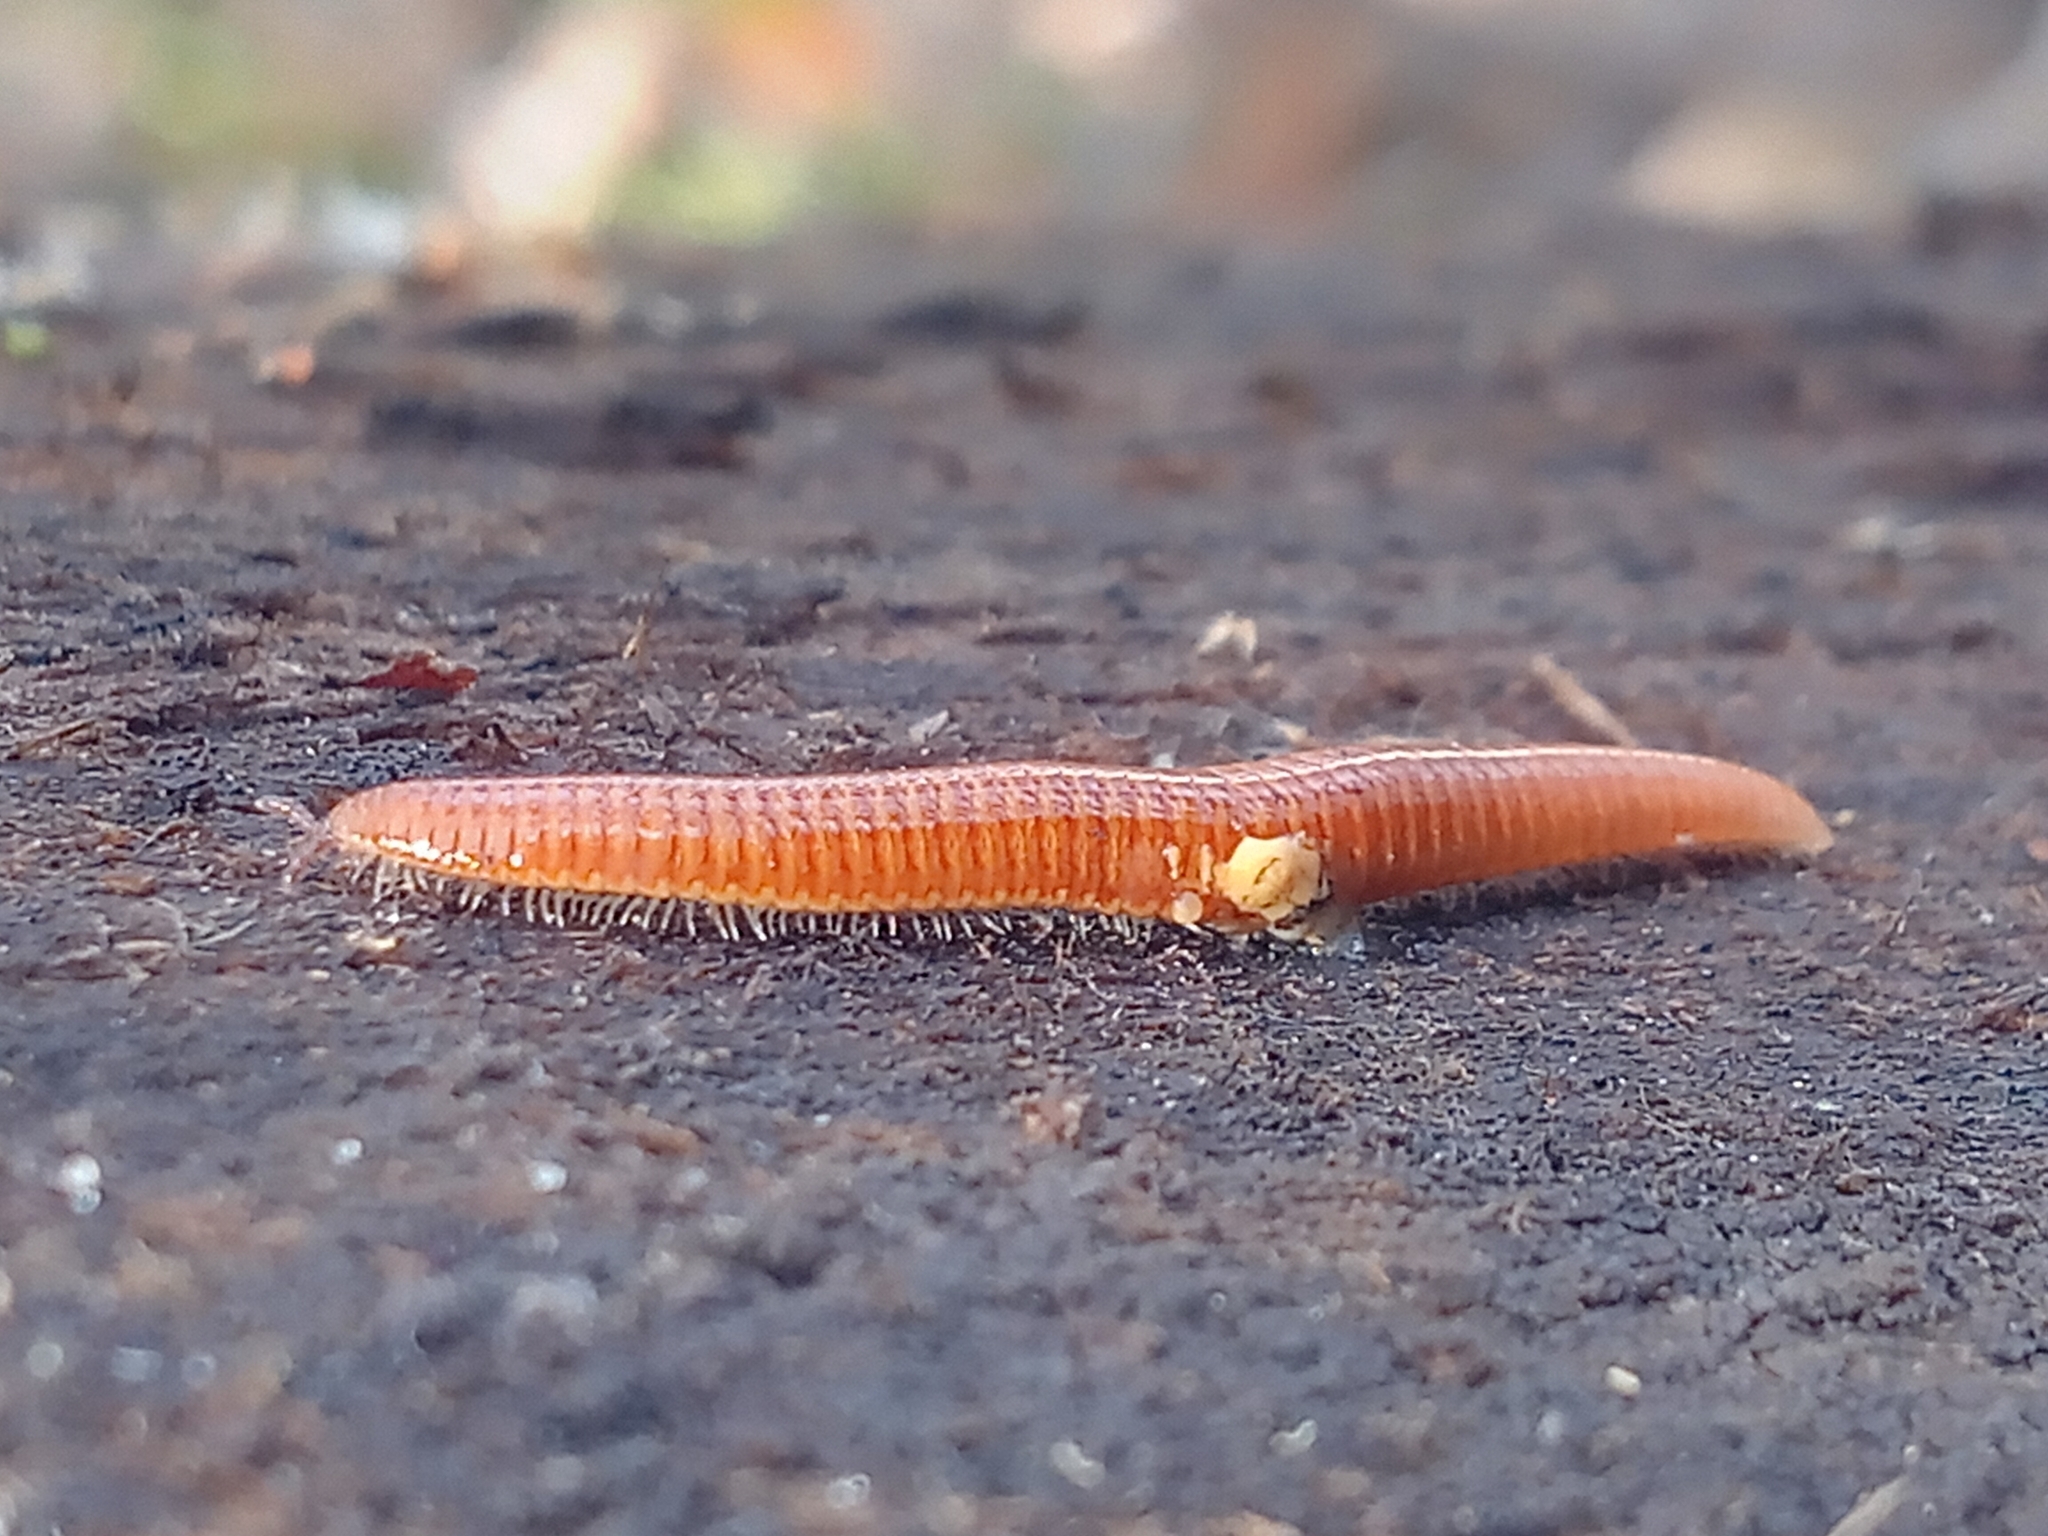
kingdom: Animalia
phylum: Arthropoda
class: Diplopoda
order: Polyzoniida
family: Polyzoniidae
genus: Polyzonium
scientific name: Polyzonium germanicum
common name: Boring millipede
